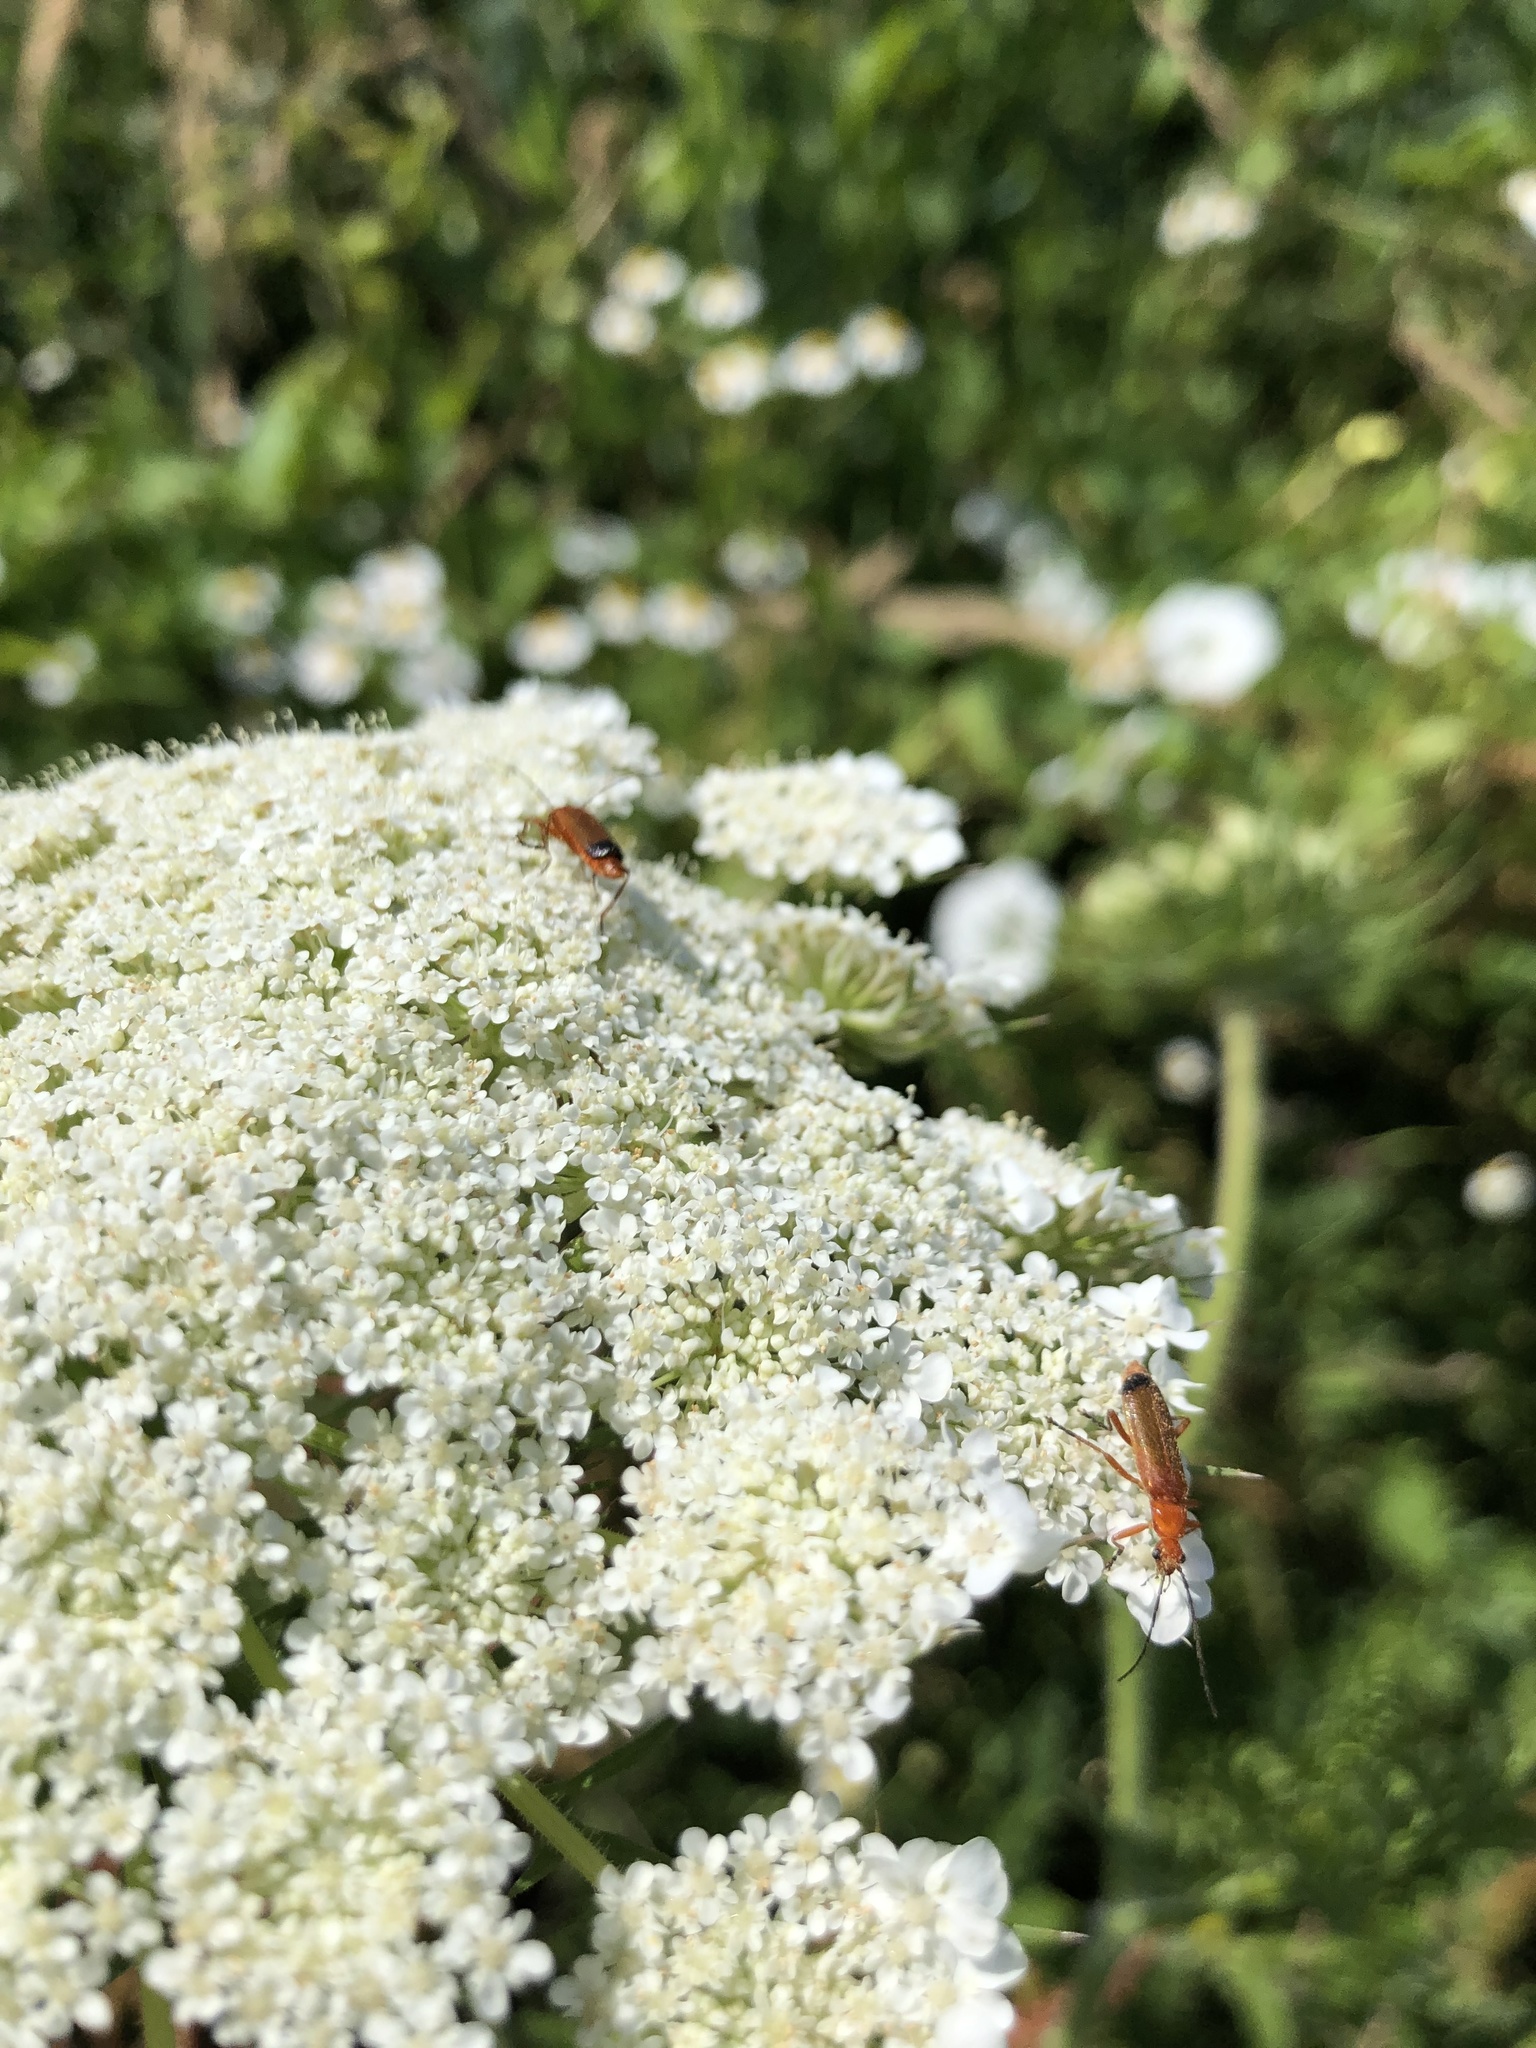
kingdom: Animalia
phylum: Arthropoda
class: Insecta
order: Coleoptera
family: Cantharidae
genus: Rhagonycha
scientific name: Rhagonycha fulva
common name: Common red soldier beetle
